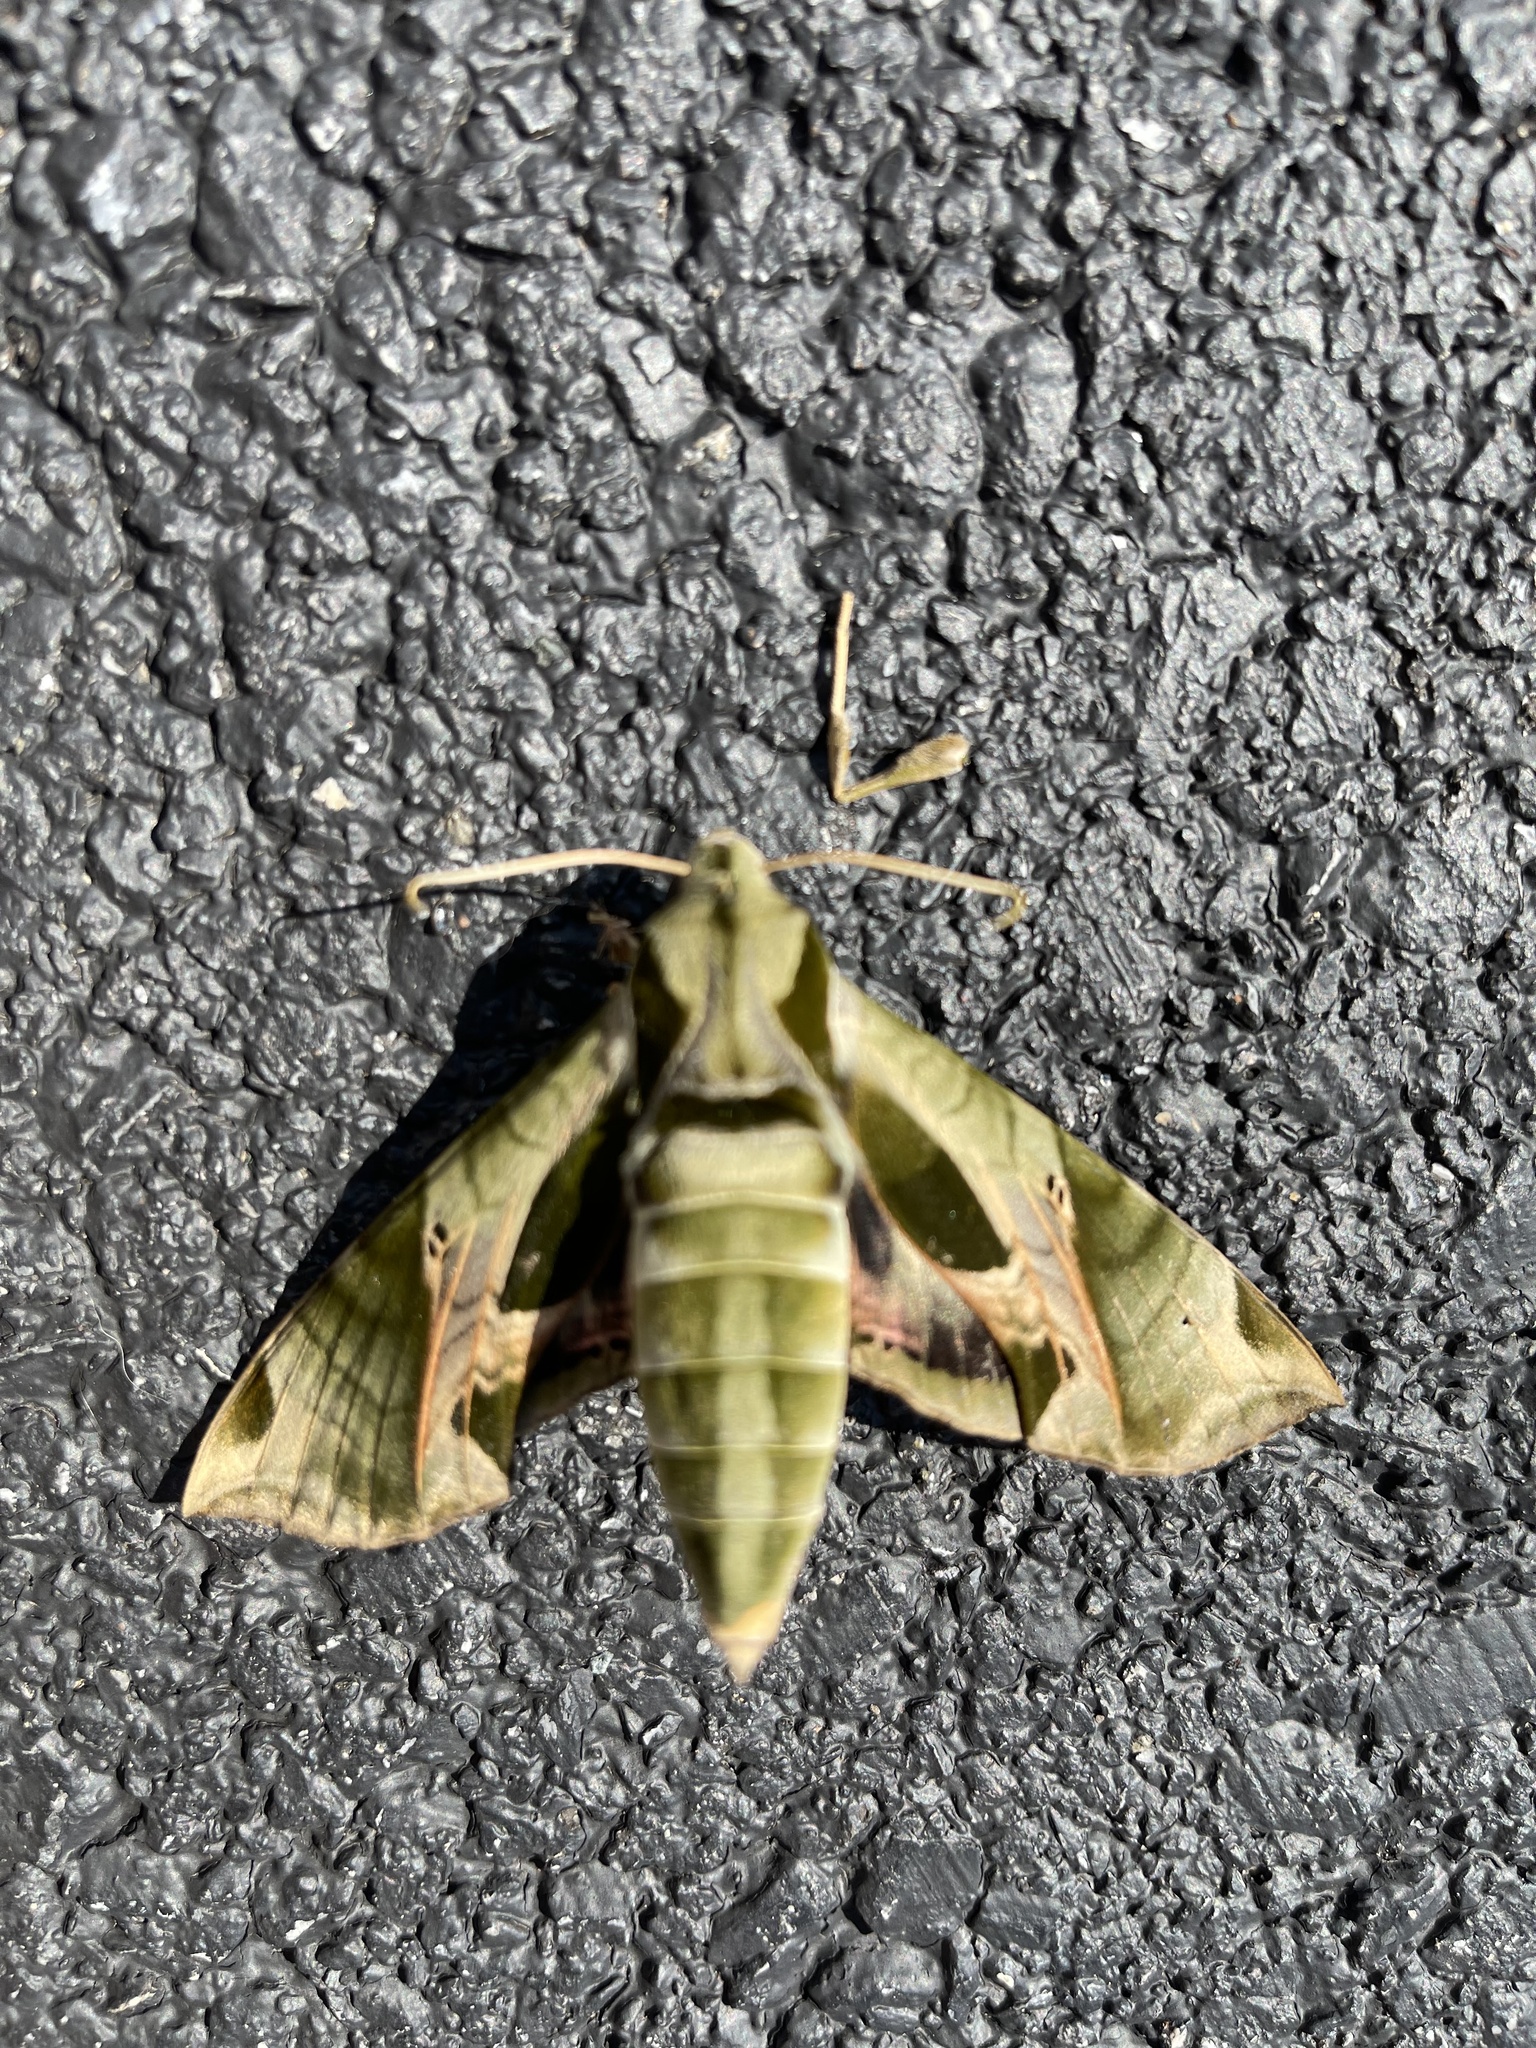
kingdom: Animalia
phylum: Arthropoda
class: Insecta
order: Lepidoptera
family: Sphingidae
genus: Eumorpha
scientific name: Eumorpha pandorus
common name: Pandora sphinx
